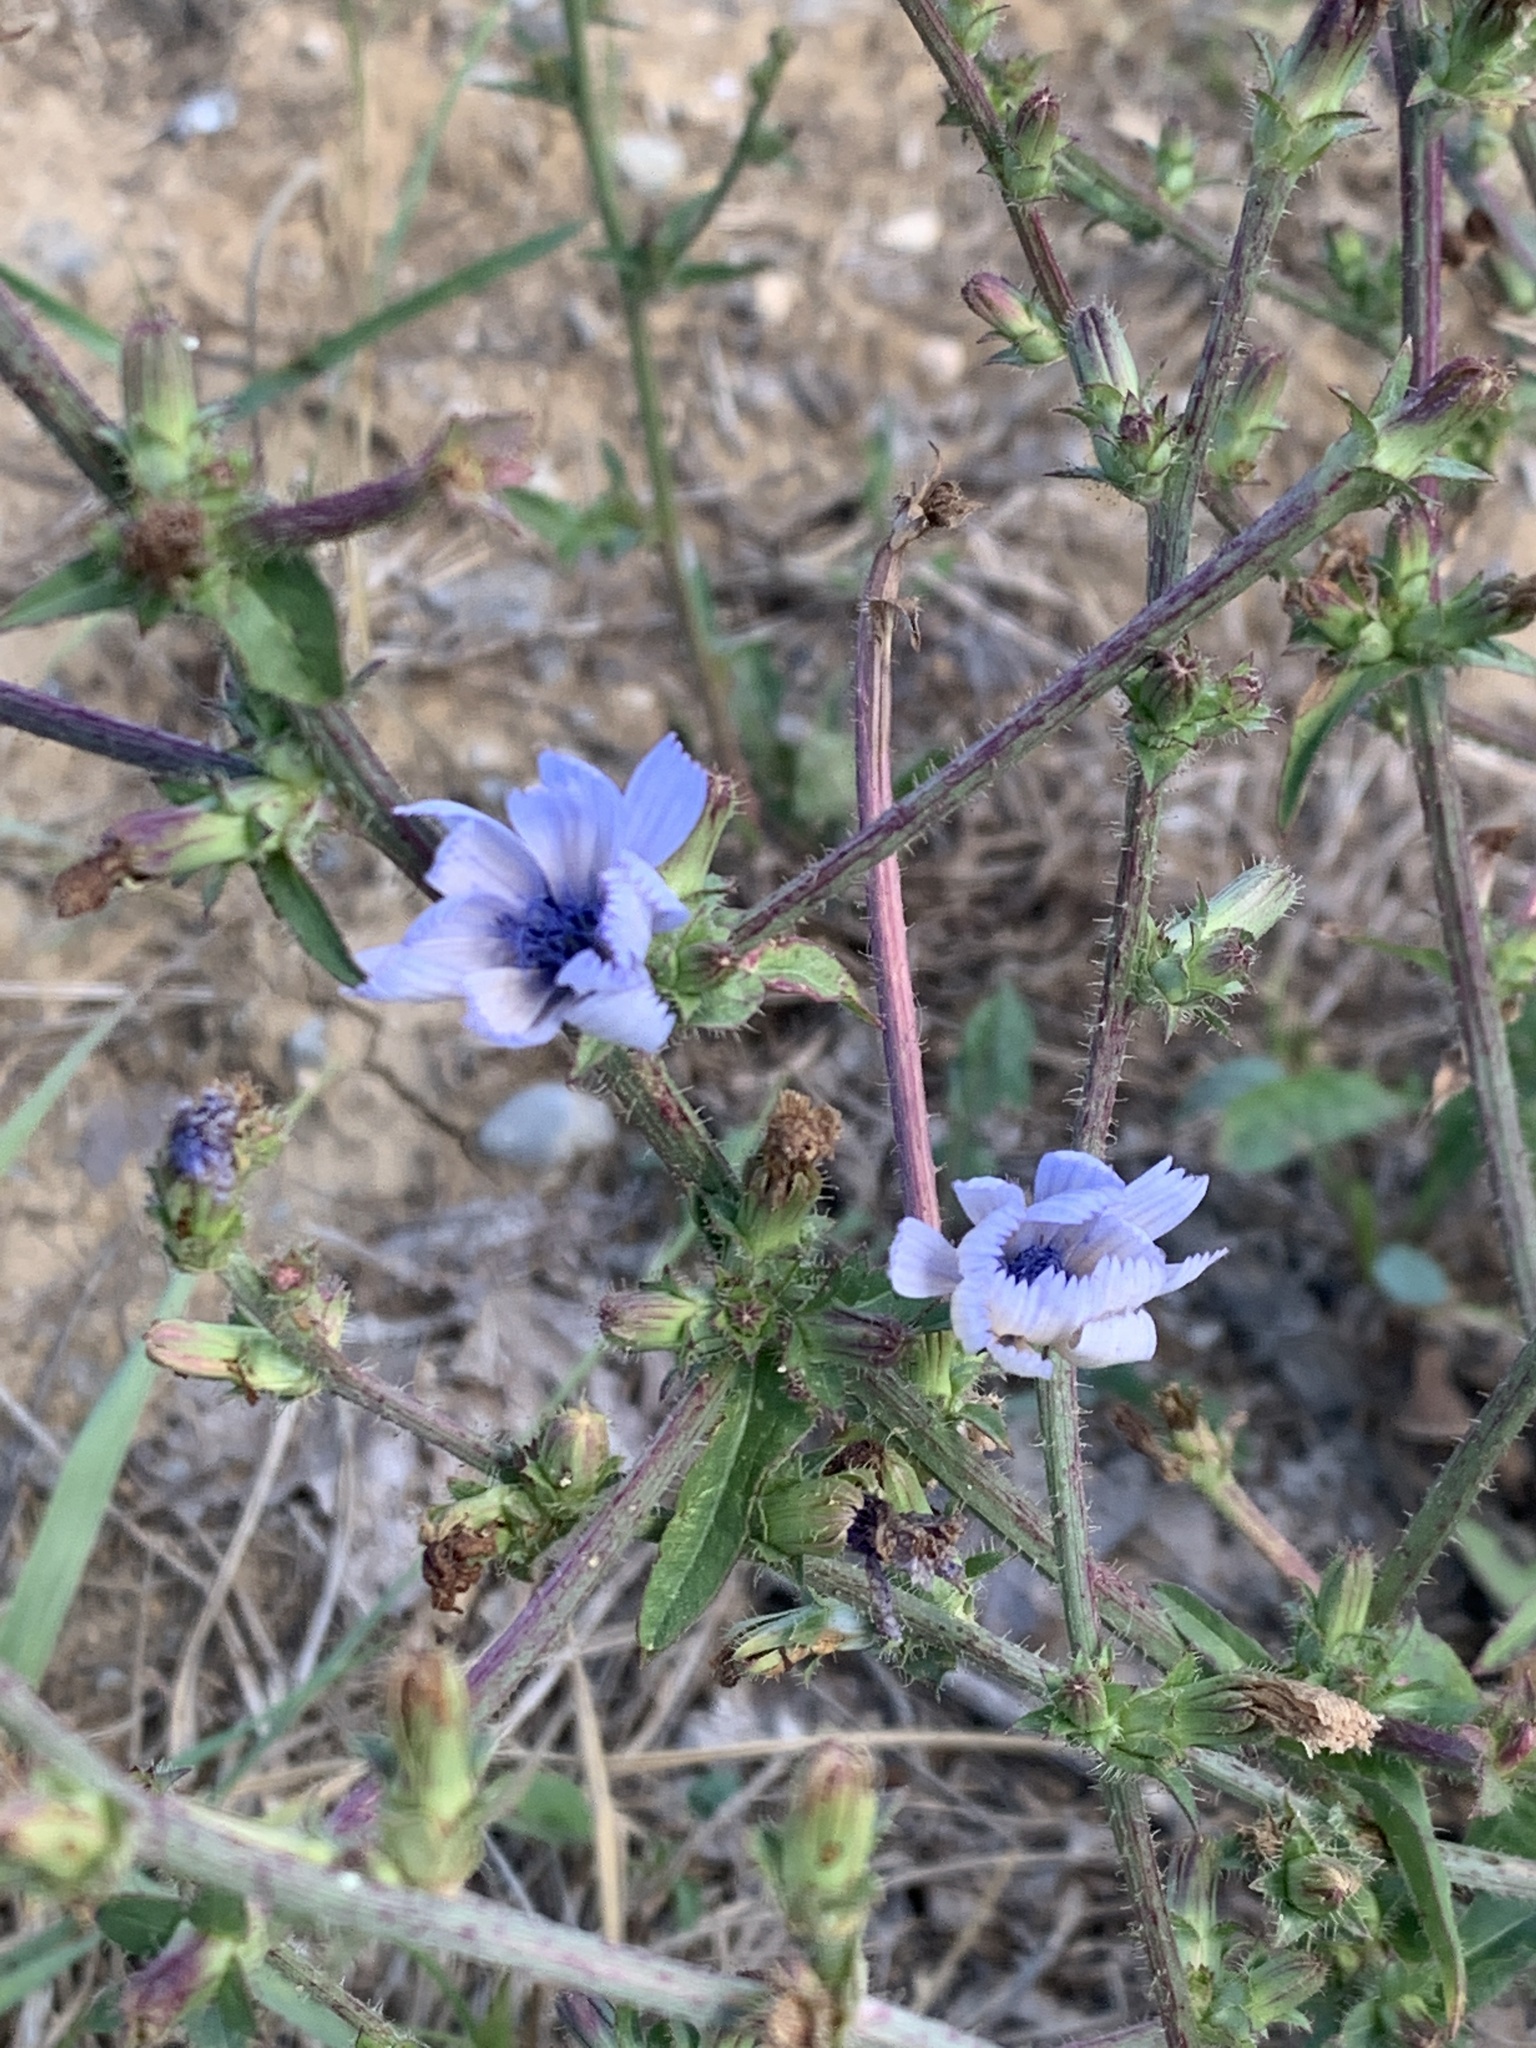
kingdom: Plantae
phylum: Tracheophyta
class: Magnoliopsida
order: Asterales
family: Asteraceae
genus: Cichorium
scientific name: Cichorium intybus
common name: Chicory
